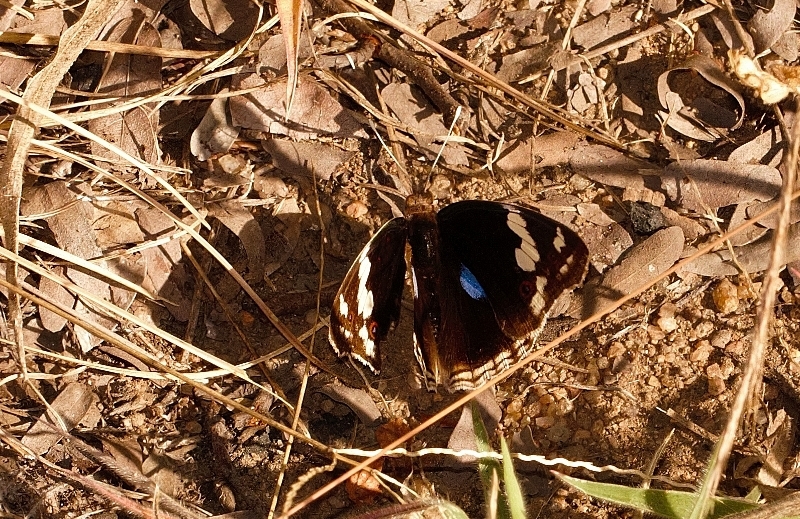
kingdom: Animalia
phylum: Arthropoda
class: Insecta
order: Lepidoptera
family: Nymphalidae
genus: Junonia
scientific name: Junonia oenone
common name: Dark blue pansy
